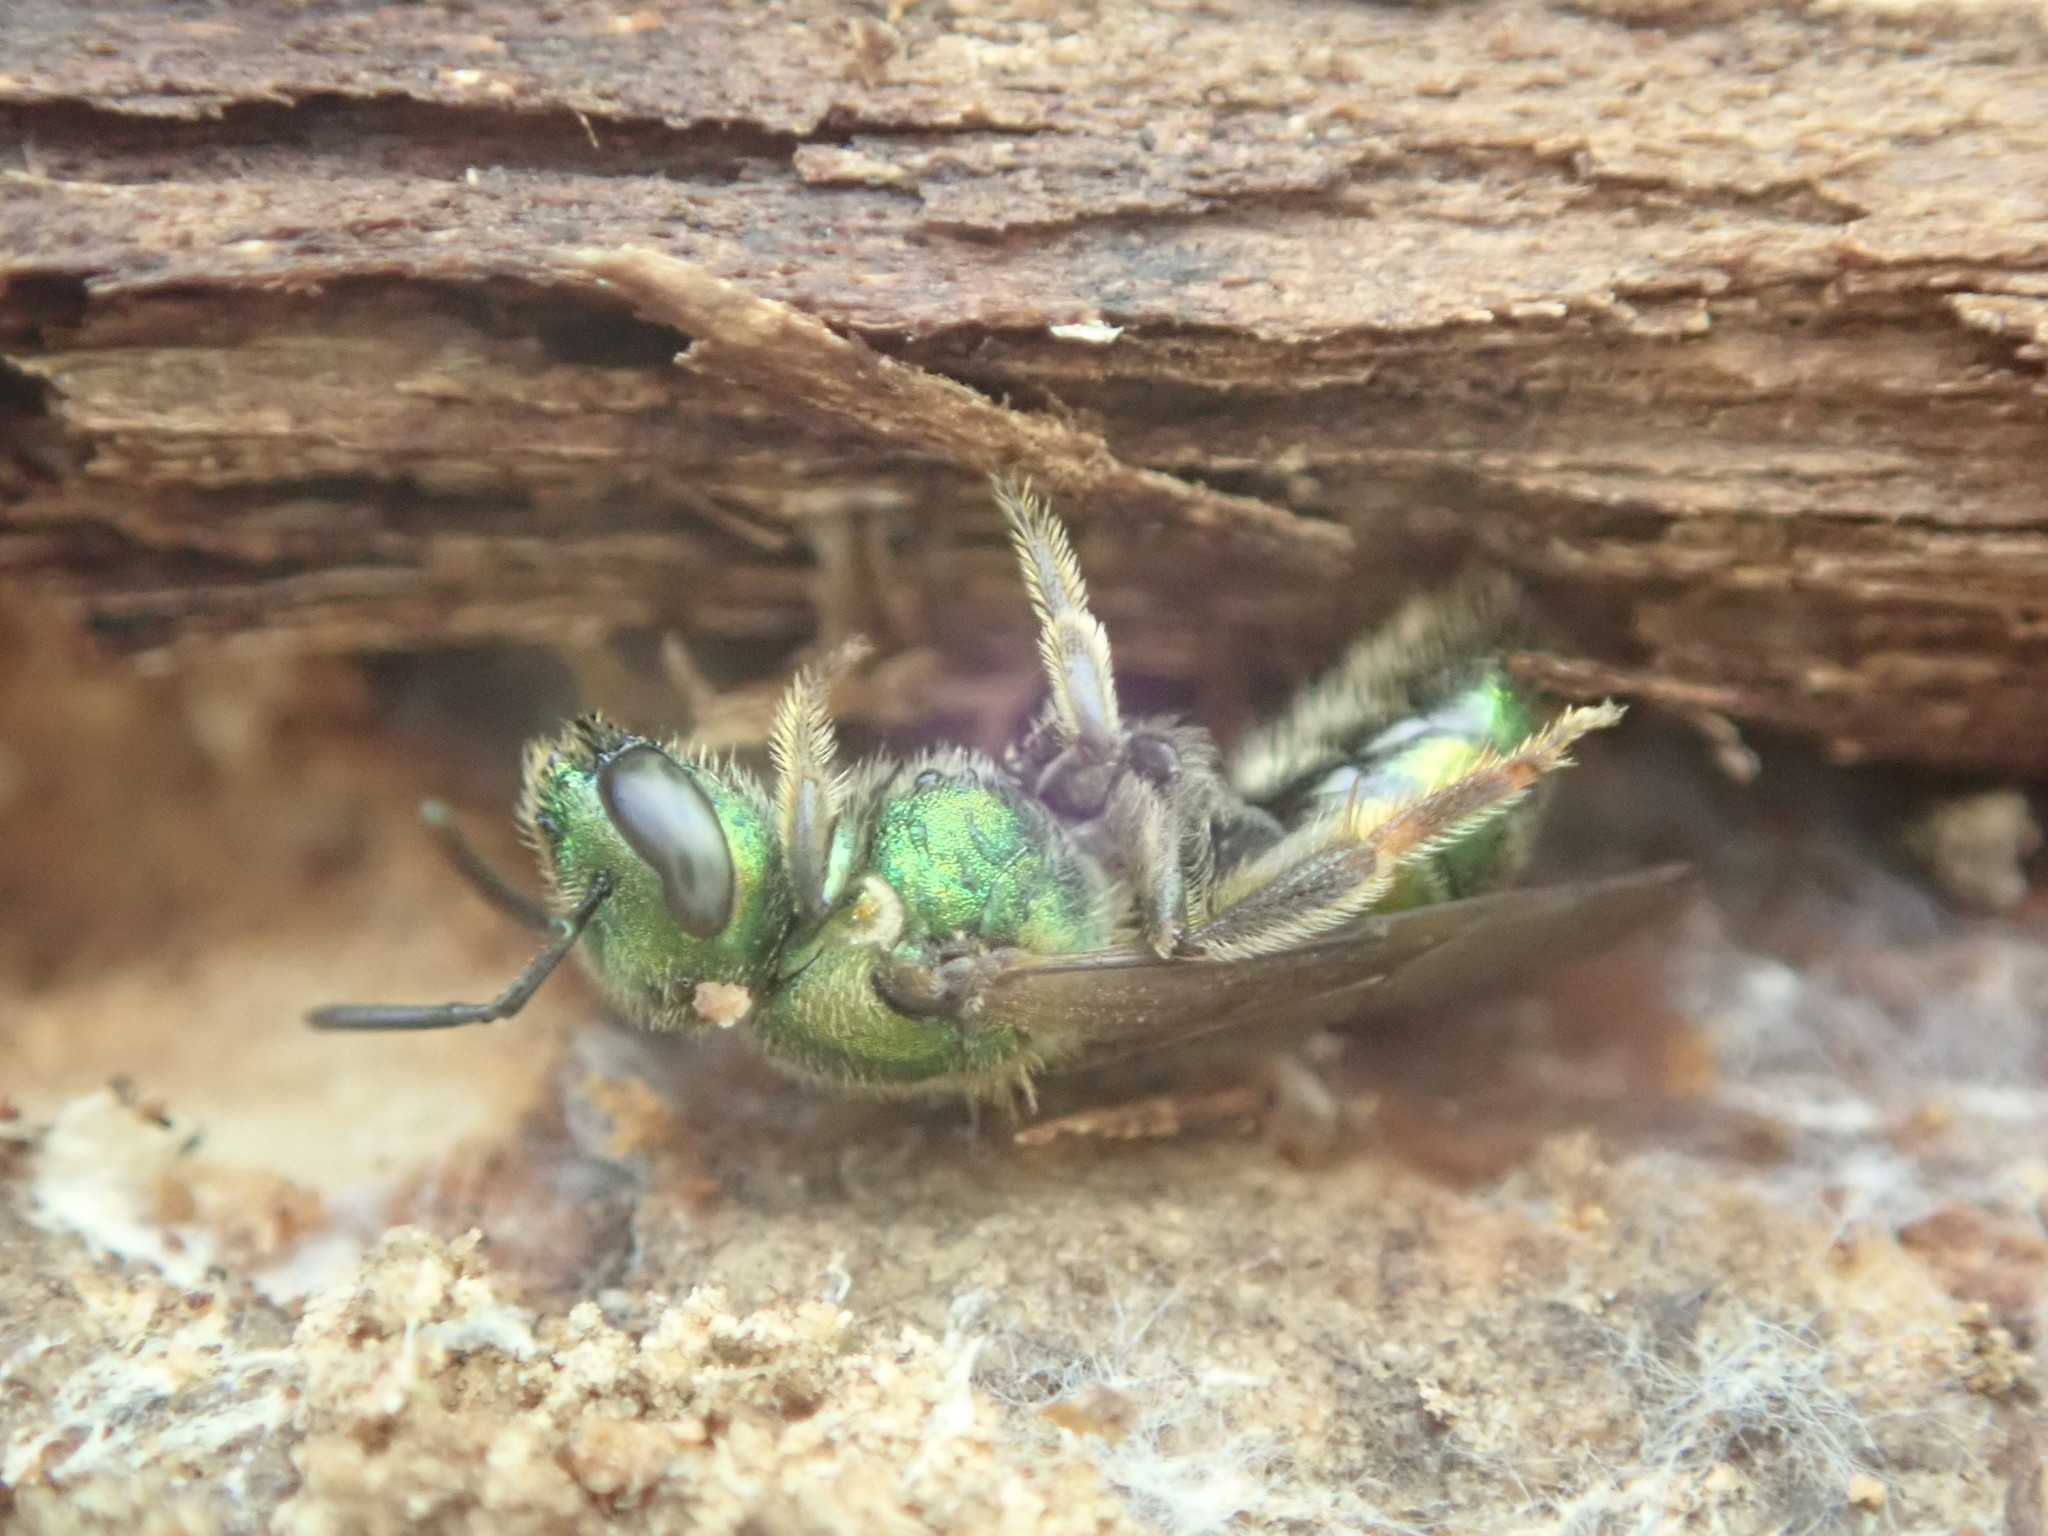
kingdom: Animalia
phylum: Arthropoda
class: Insecta
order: Hymenoptera
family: Halictidae
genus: Augochlora
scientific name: Augochlora pura
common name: Pure green sweat bee
